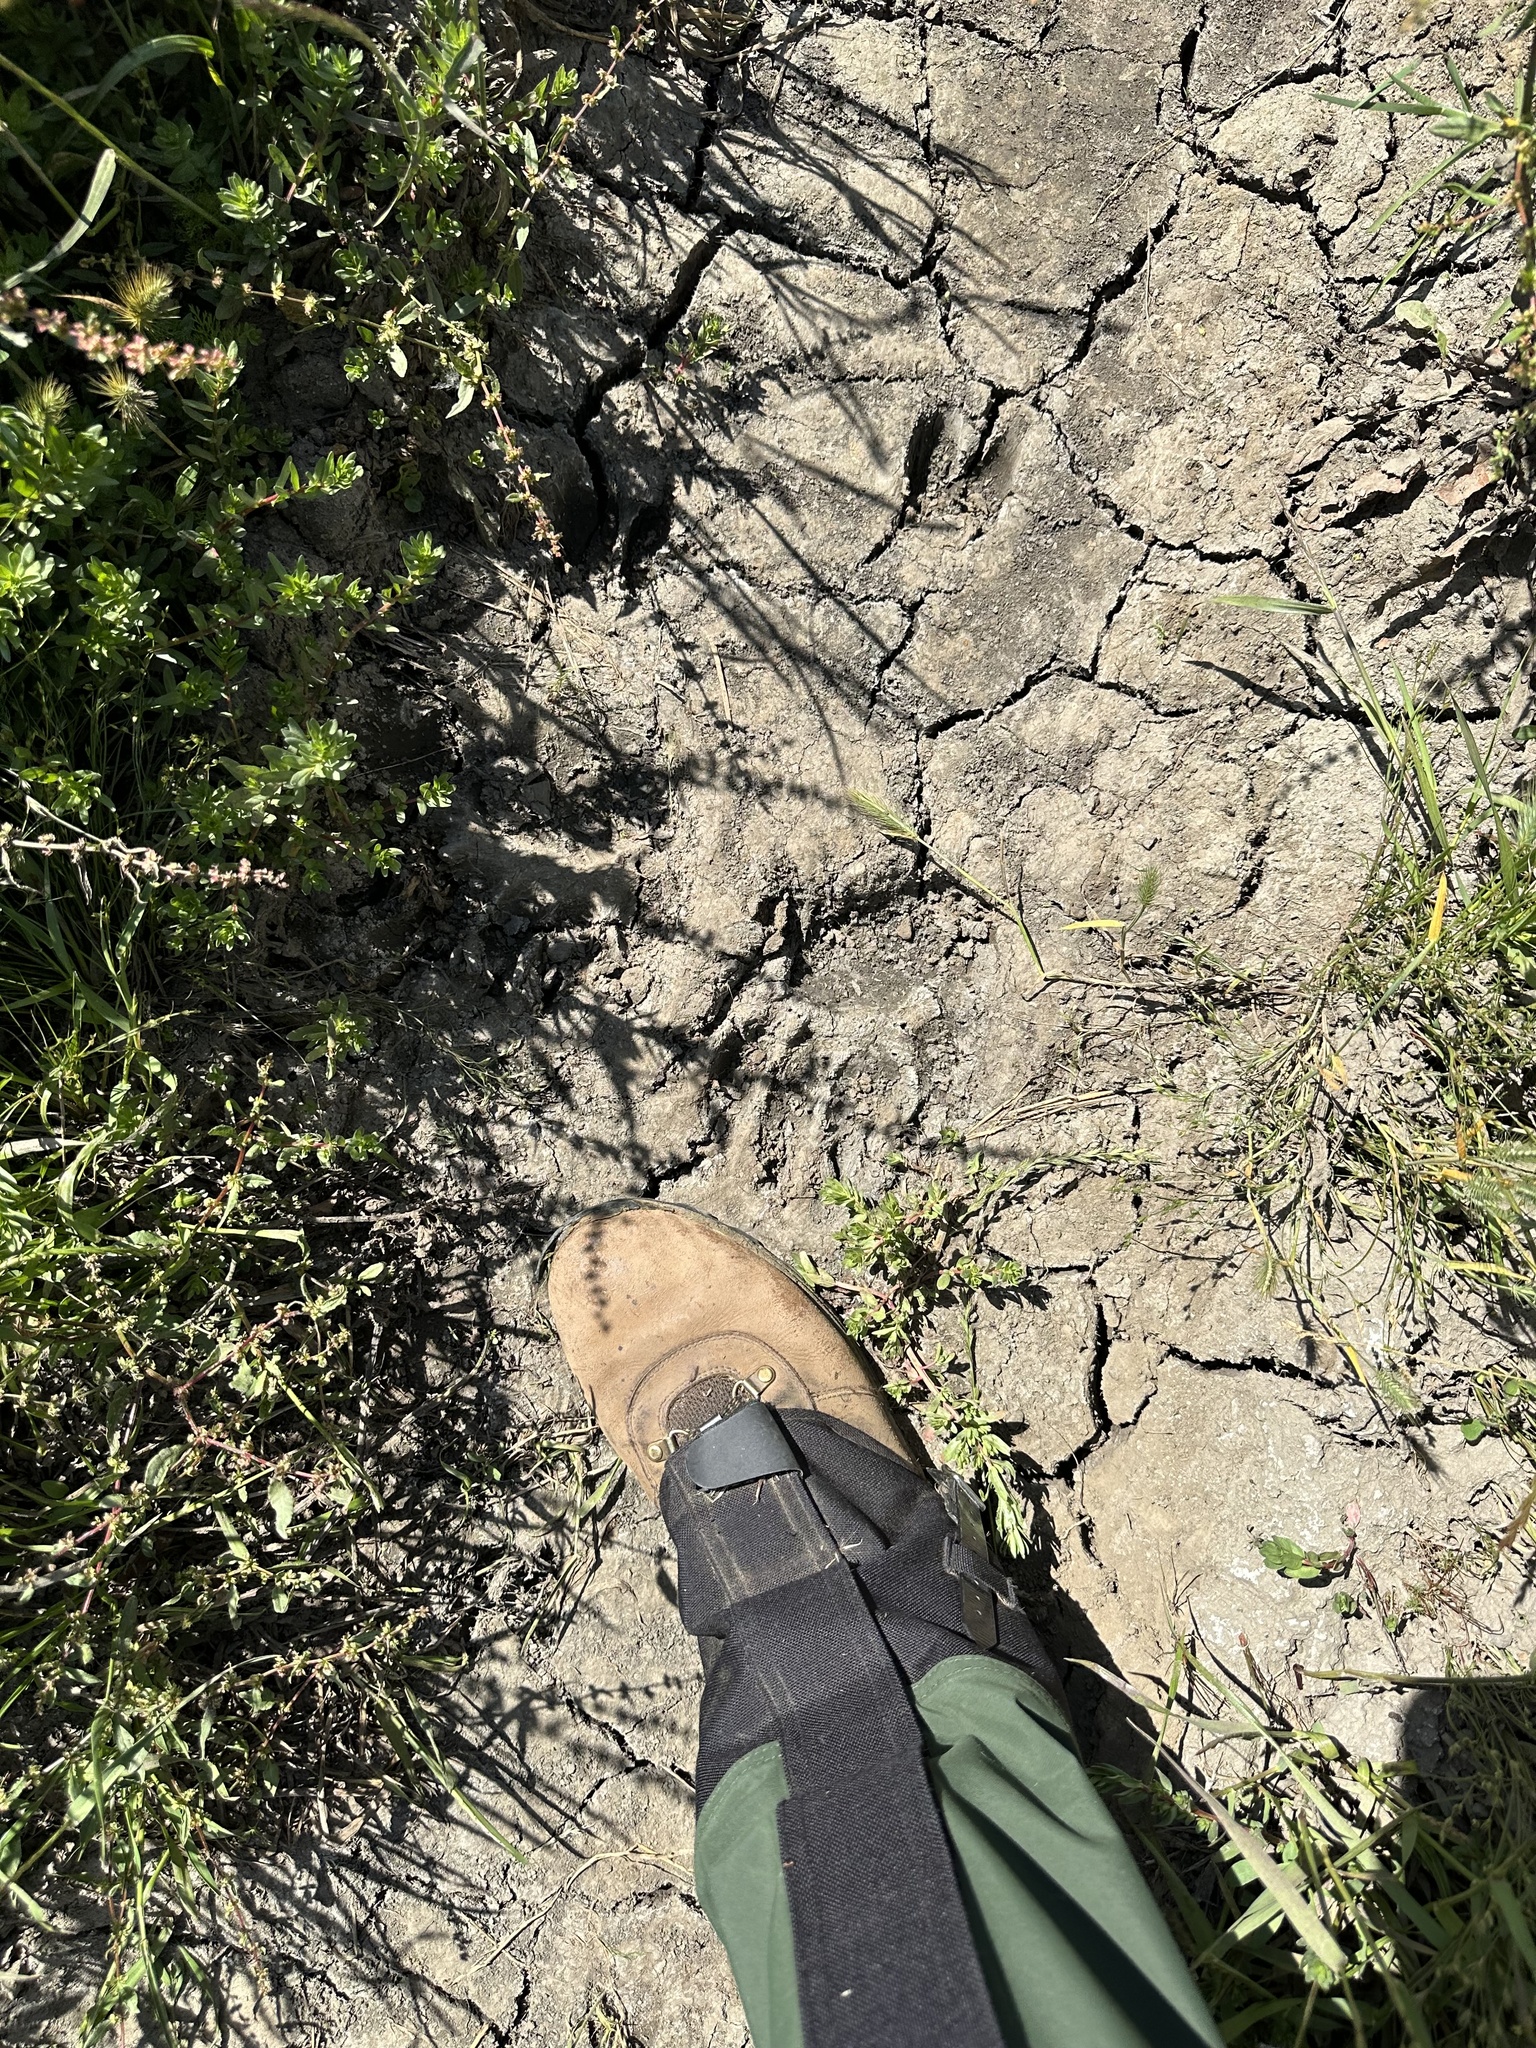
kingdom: Animalia
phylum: Chordata
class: Mammalia
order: Carnivora
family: Ursidae
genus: Ursus
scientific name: Ursus americanus
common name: American black bear
